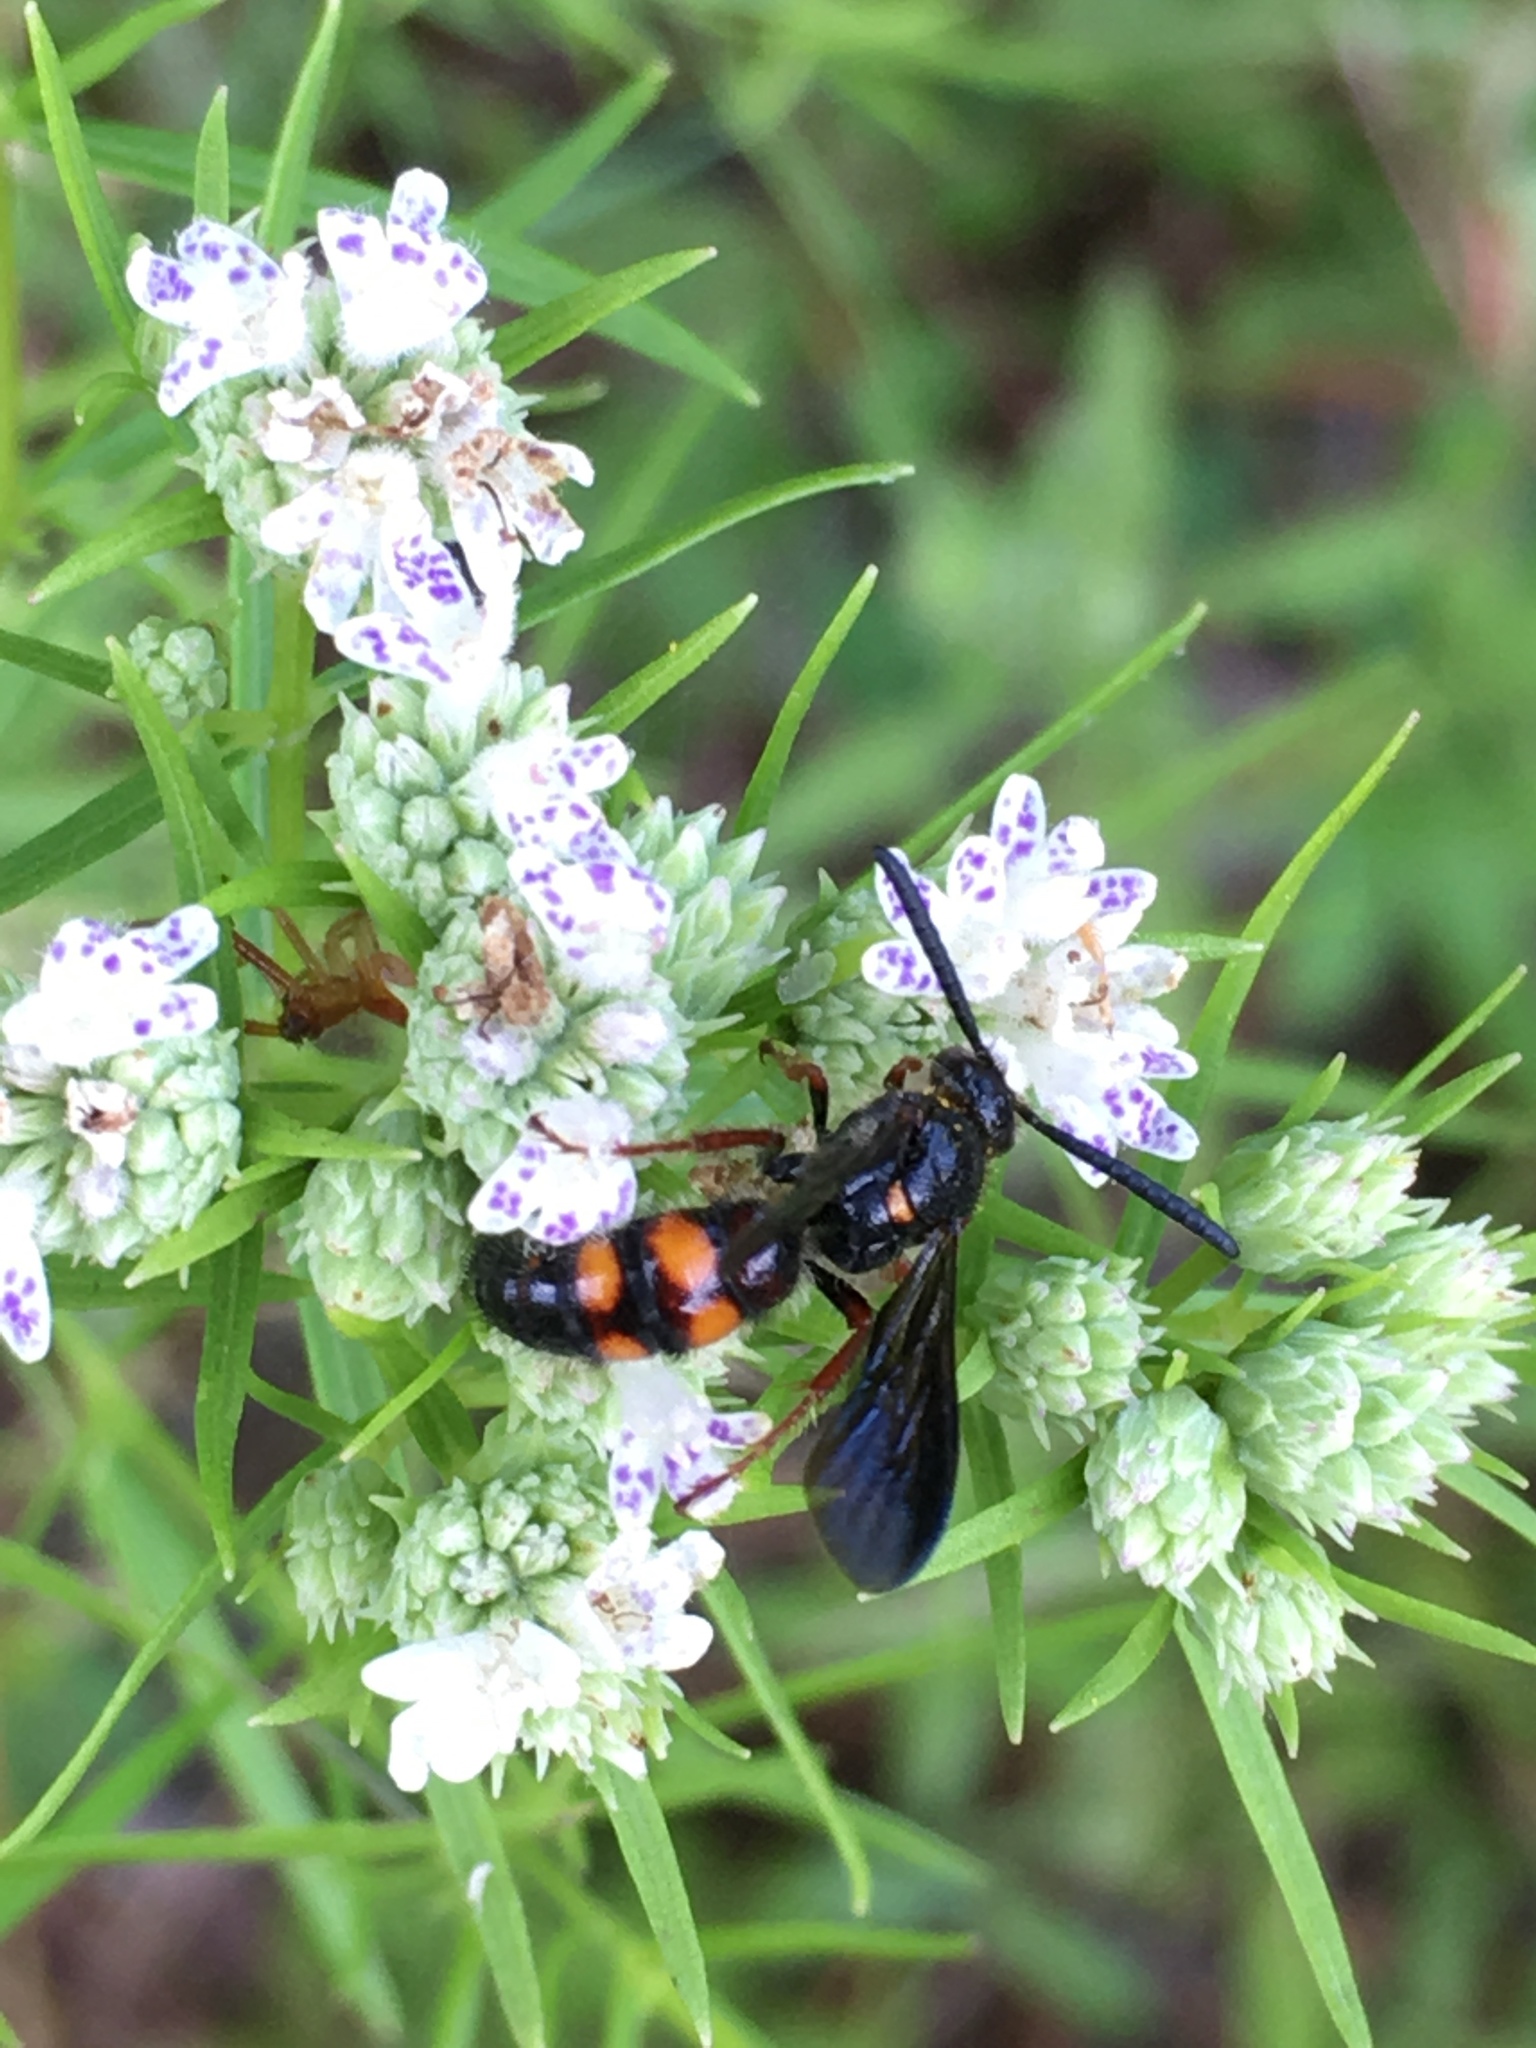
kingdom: Plantae
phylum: Tracheophyta
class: Magnoliopsida
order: Lamiales
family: Lamiaceae
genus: Pycnanthemum
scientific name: Pycnanthemum tenuifolium
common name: Narrow-leaf mountain-mint
